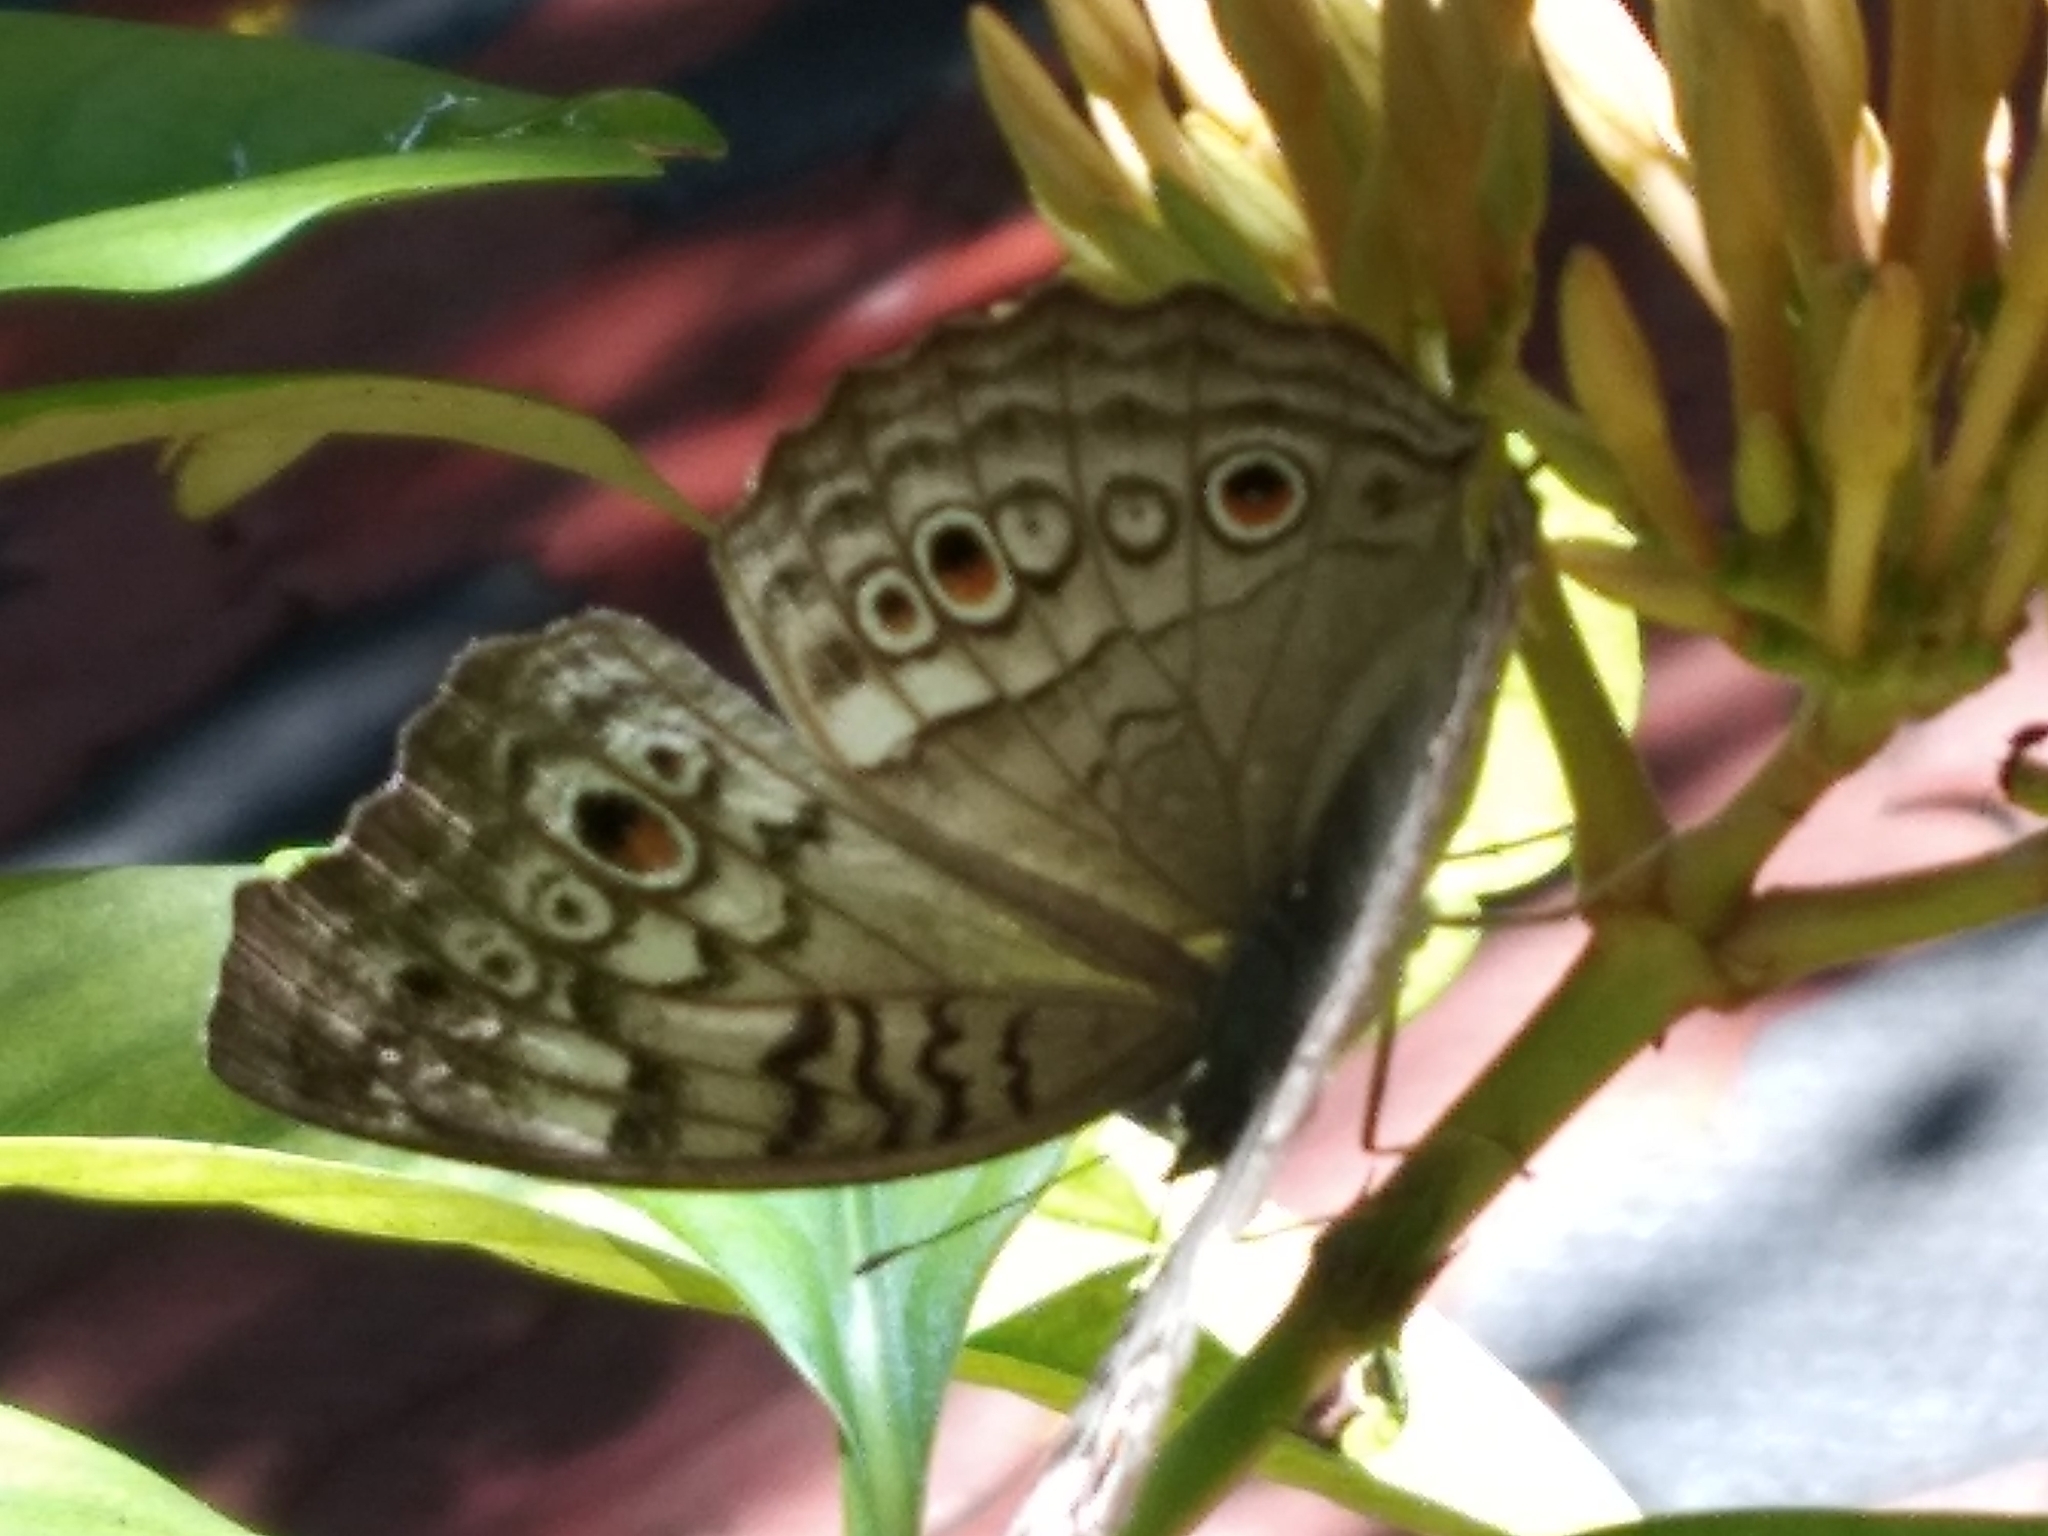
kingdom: Animalia
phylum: Arthropoda
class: Insecta
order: Lepidoptera
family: Nymphalidae
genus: Junonia
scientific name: Junonia atlites
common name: Grey pansy
